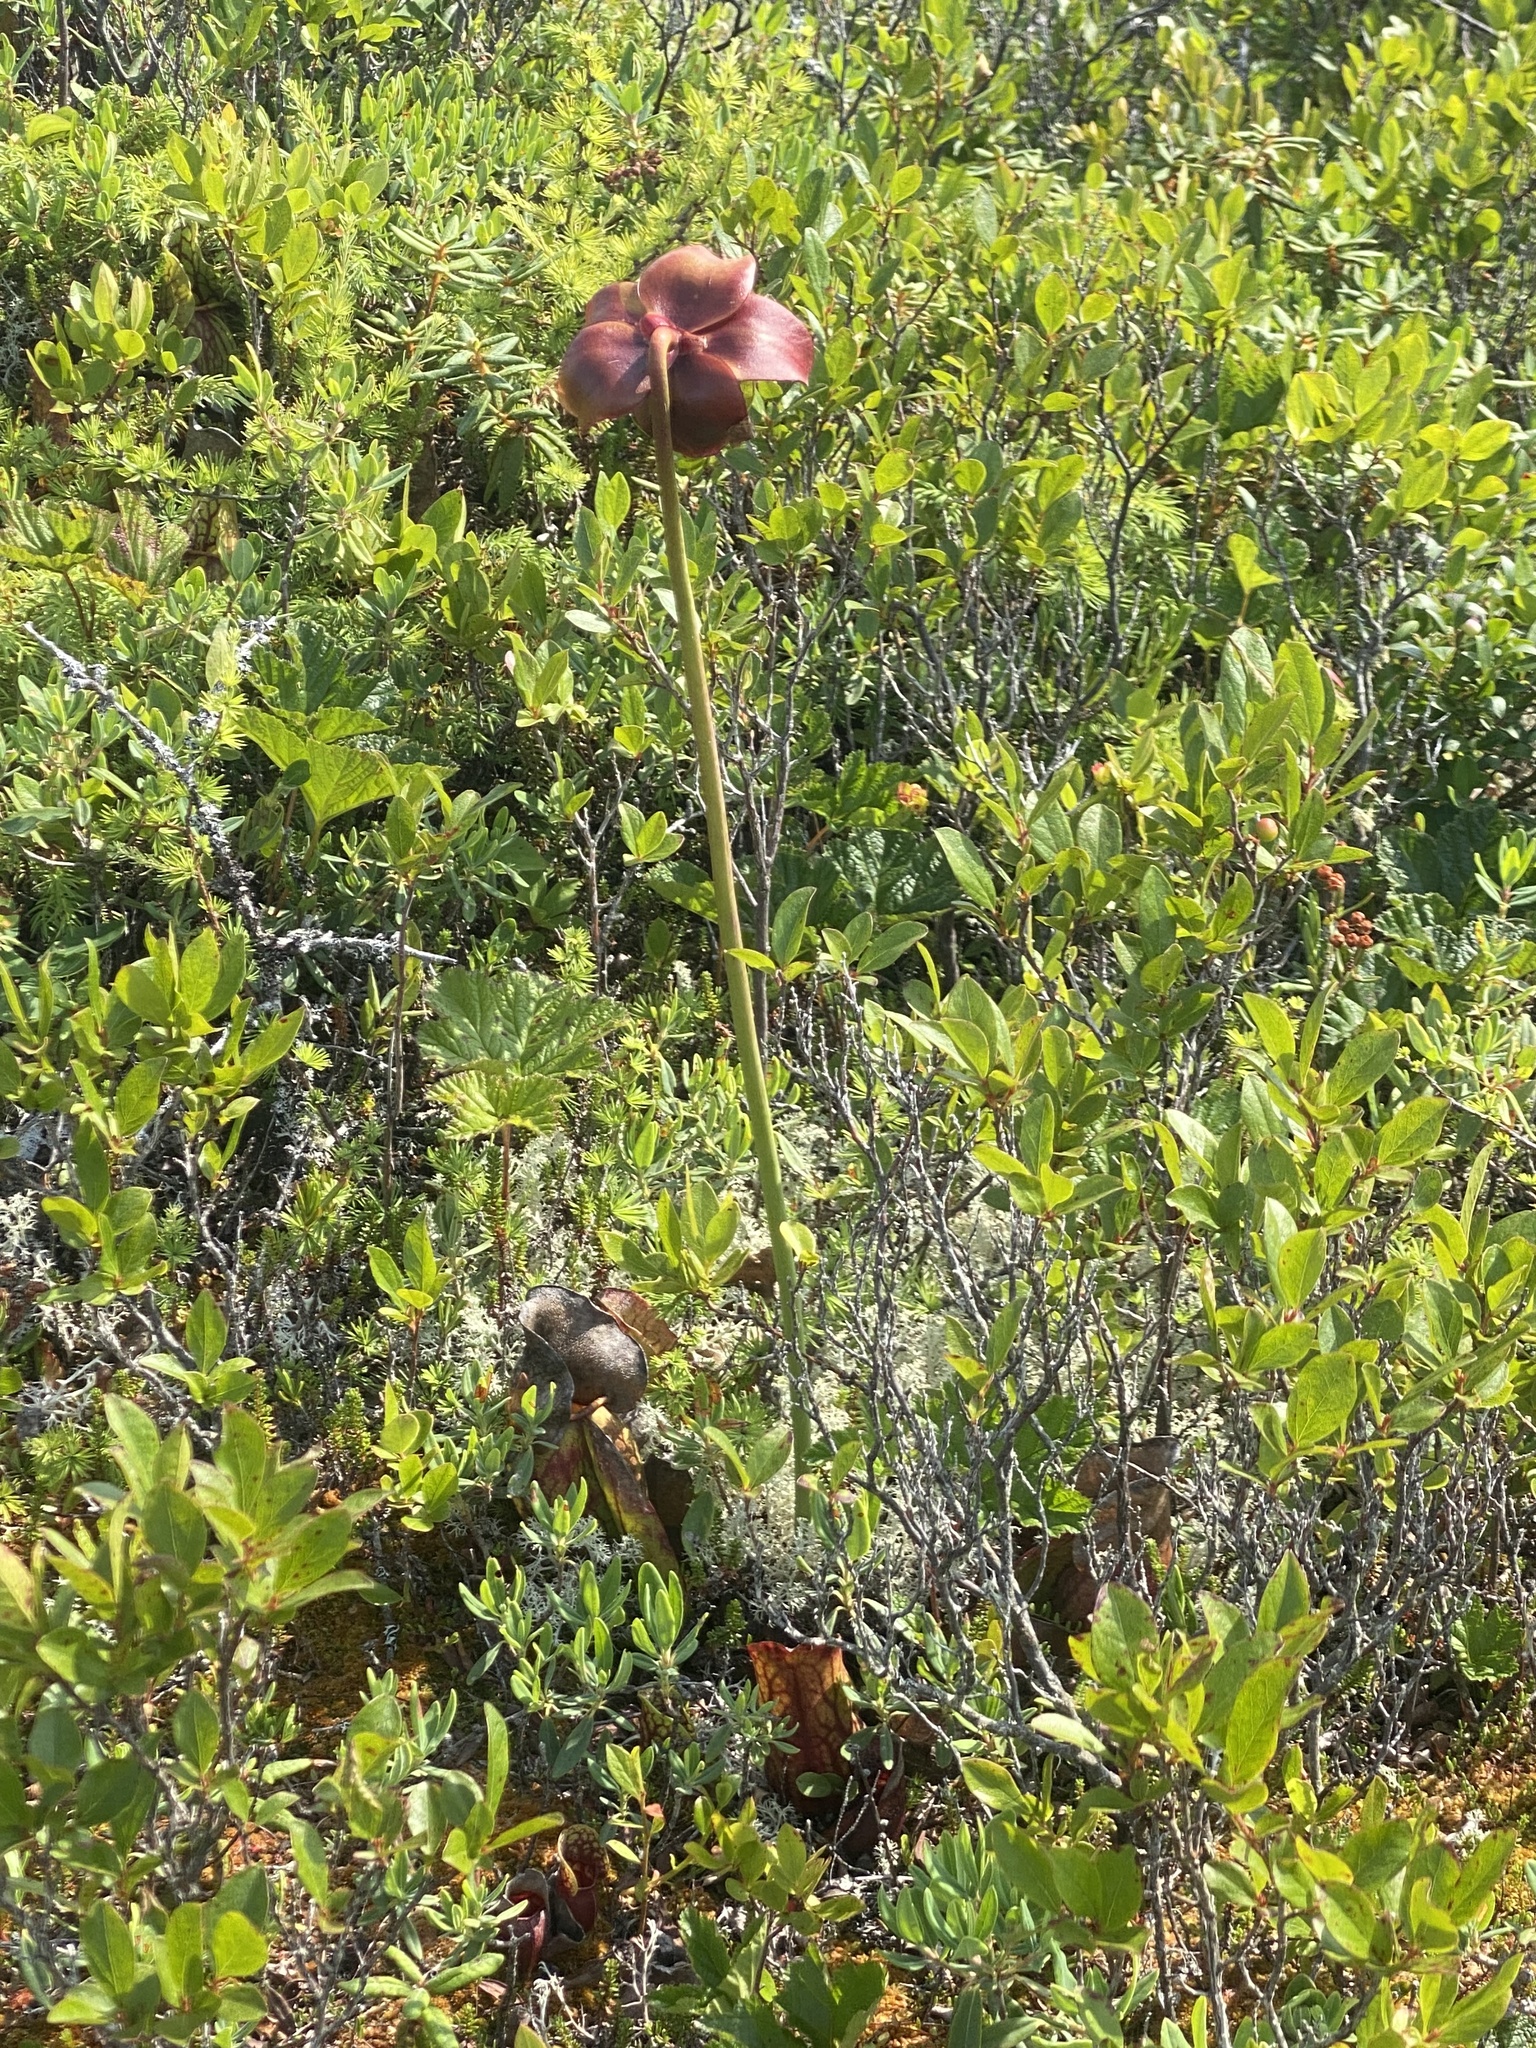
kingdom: Plantae
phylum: Tracheophyta
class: Magnoliopsida
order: Ericales
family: Sarraceniaceae
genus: Sarracenia
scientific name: Sarracenia purpurea
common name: Pitcherplant
